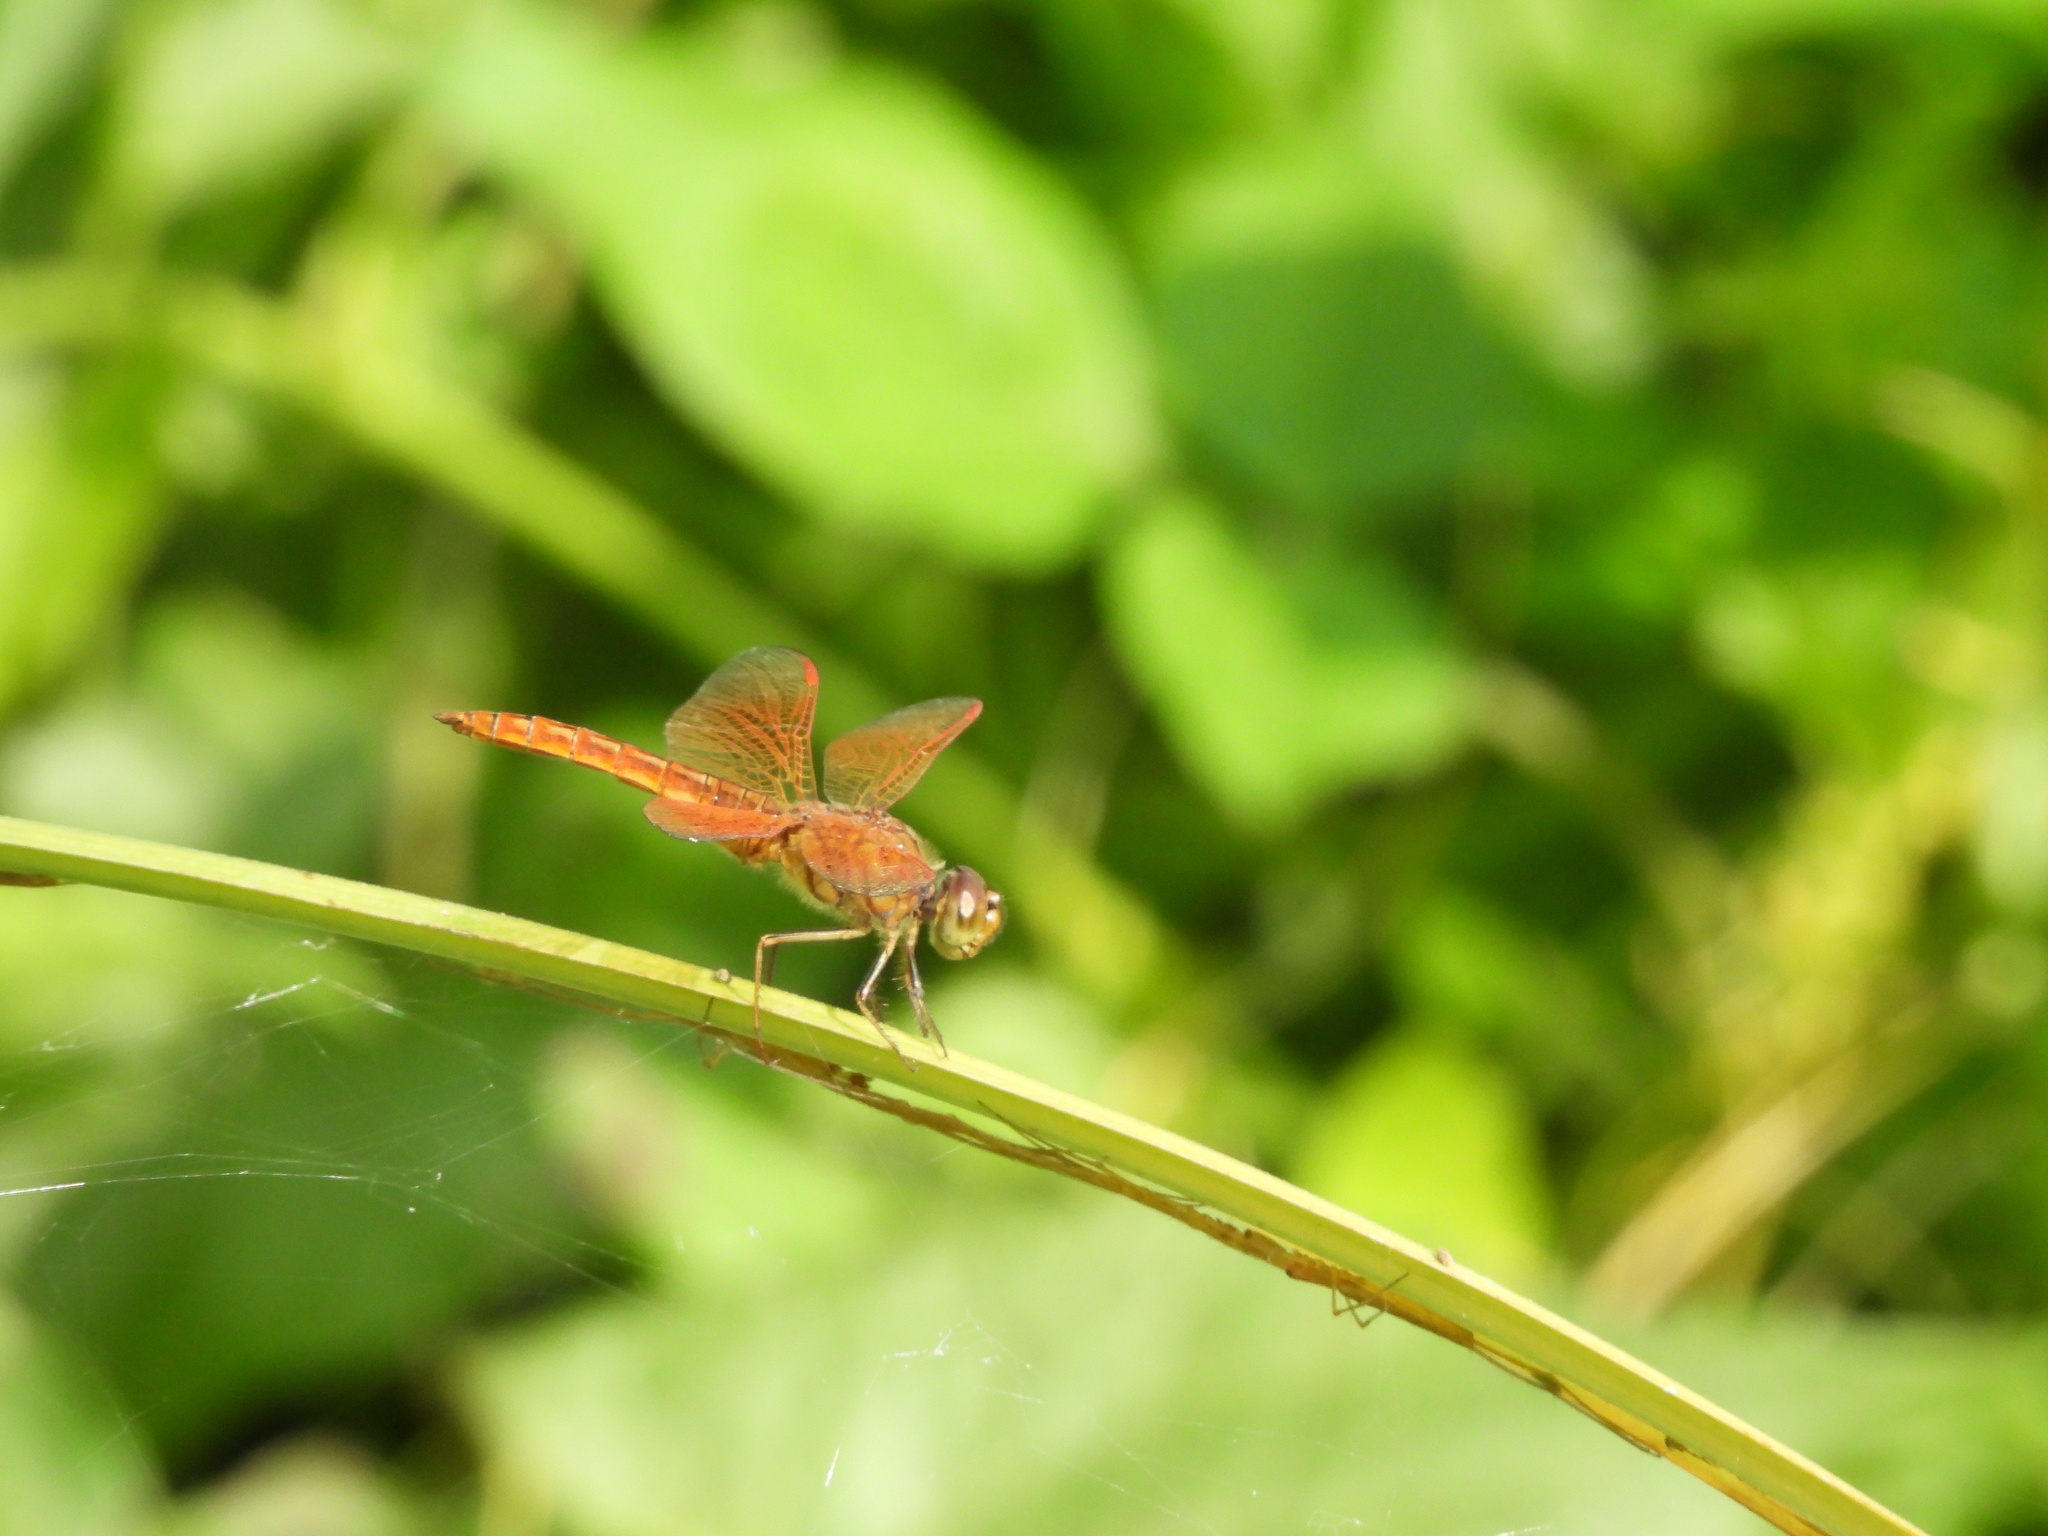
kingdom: Animalia
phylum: Arthropoda
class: Insecta
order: Odonata
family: Libellulidae
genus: Brachythemis
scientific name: Brachythemis contaminata
